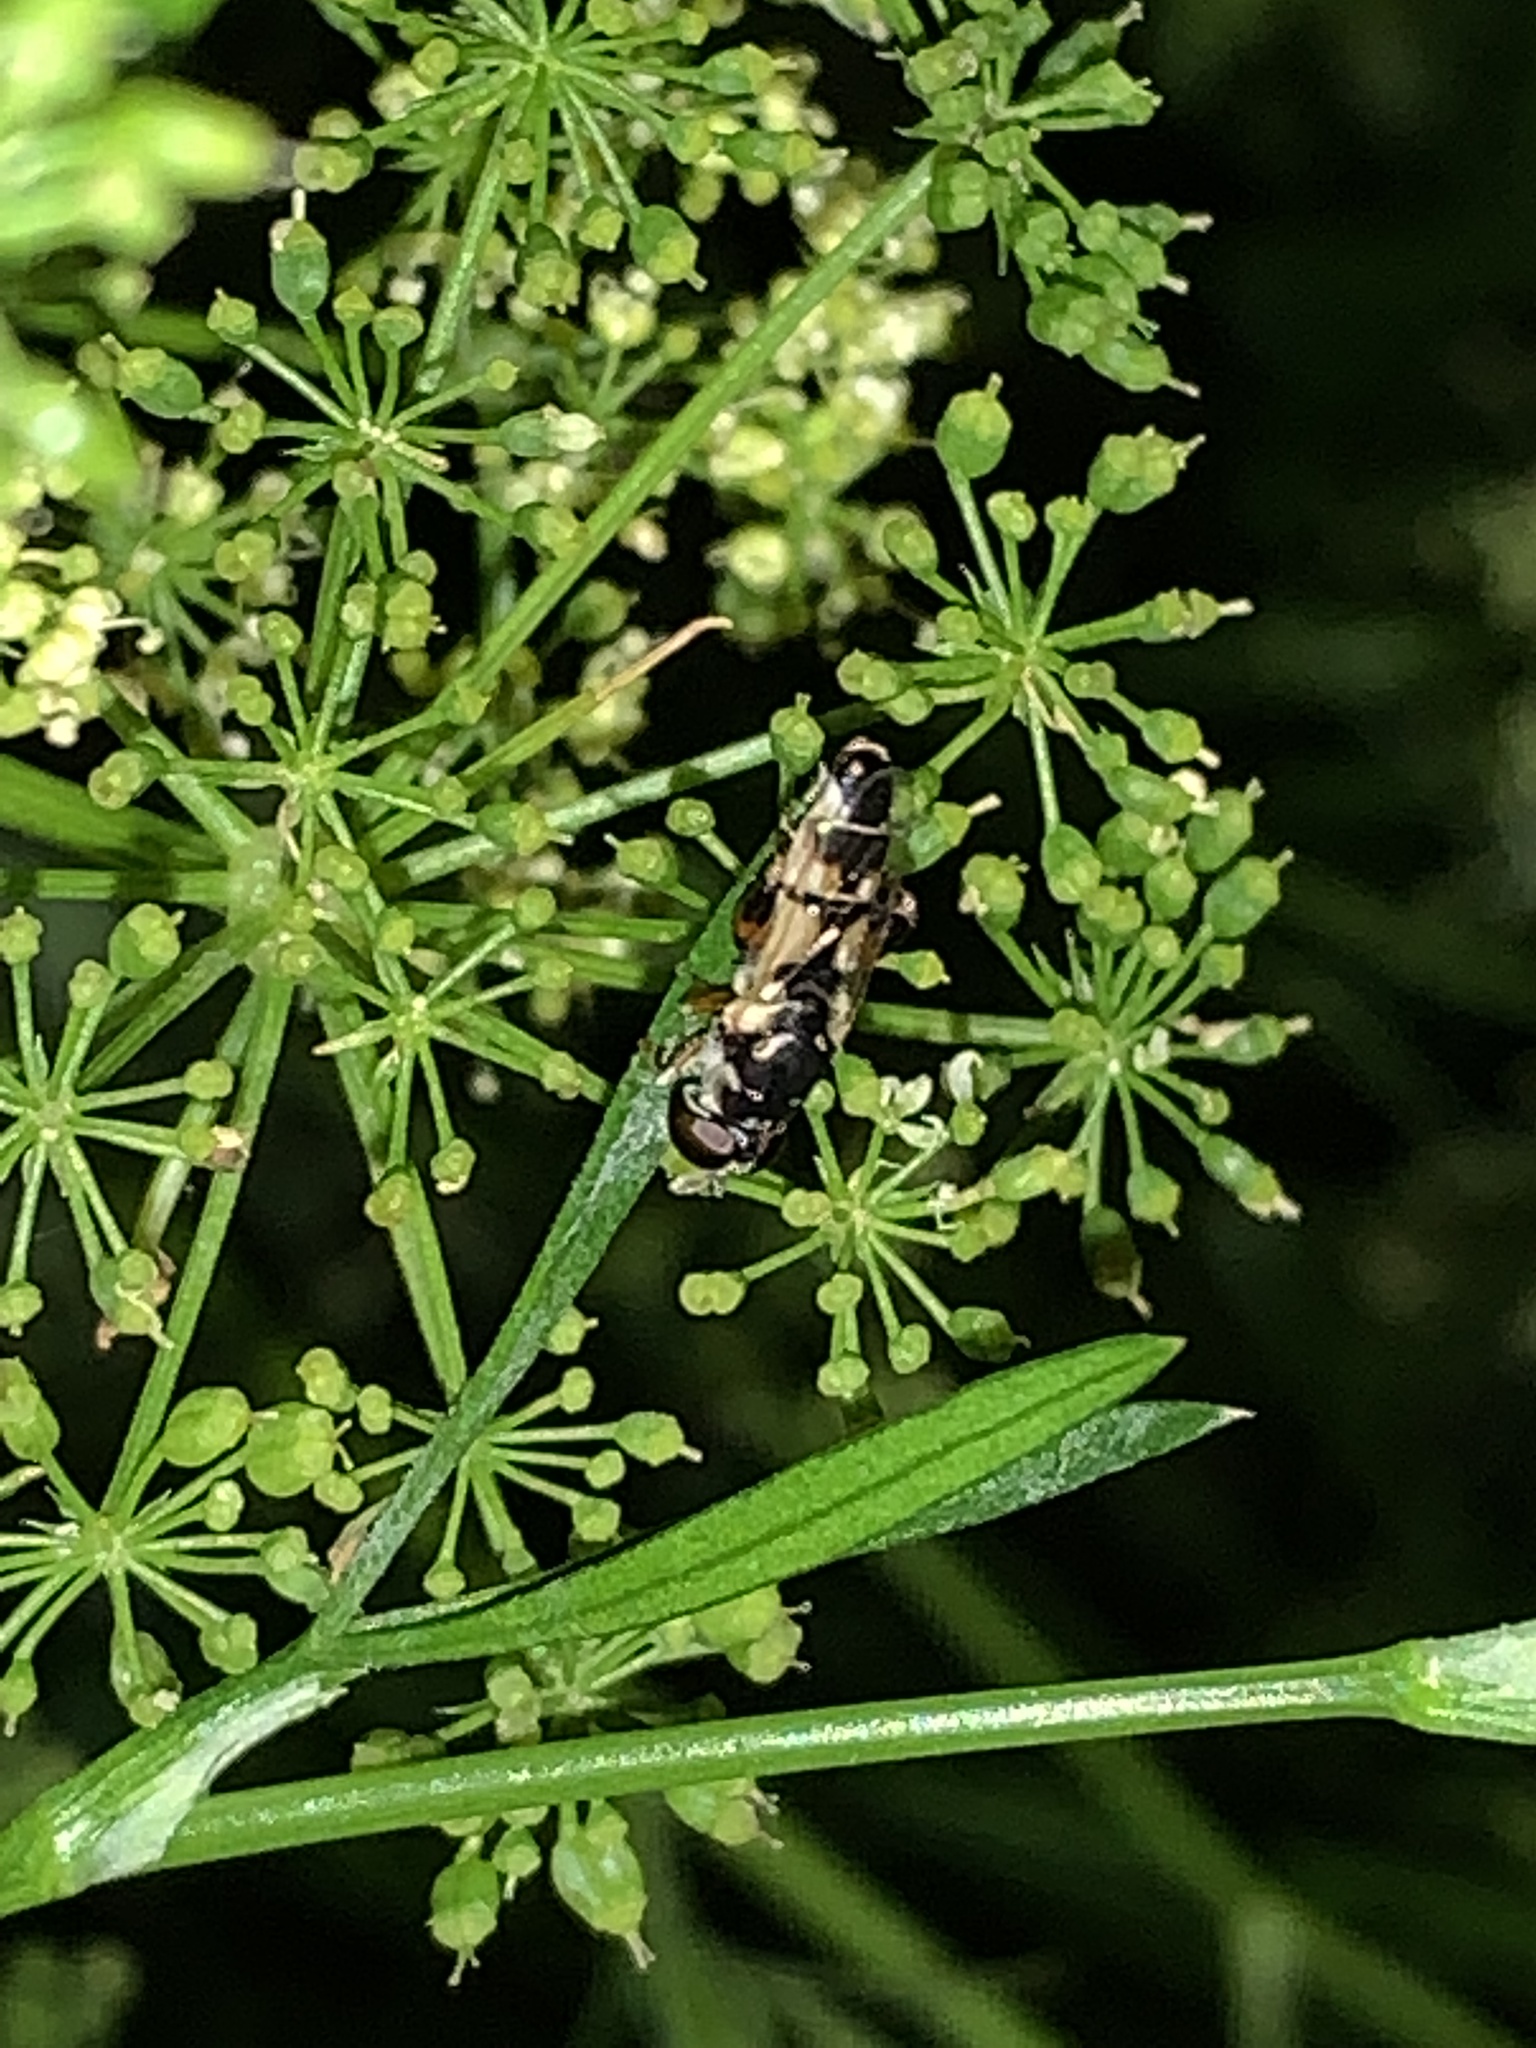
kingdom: Animalia
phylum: Arthropoda
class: Insecta
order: Diptera
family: Syrphidae
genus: Syritta
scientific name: Syritta flaviventris
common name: Syrphid fly
